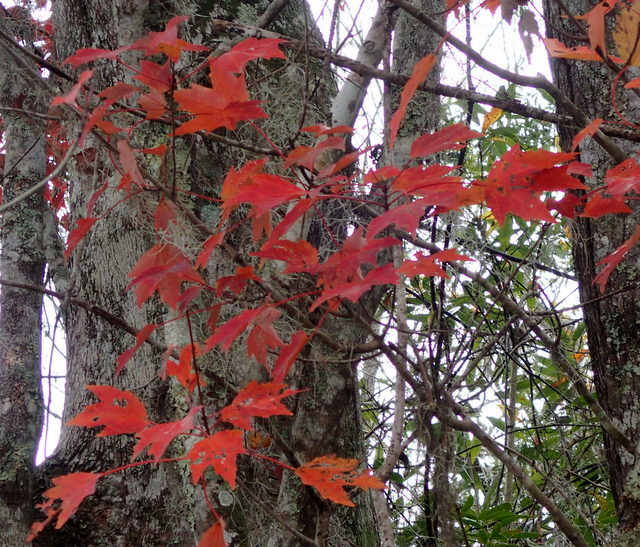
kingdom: Plantae
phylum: Tracheophyta
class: Magnoliopsida
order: Sapindales
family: Sapindaceae
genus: Acer
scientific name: Acer rubrum
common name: Red maple
